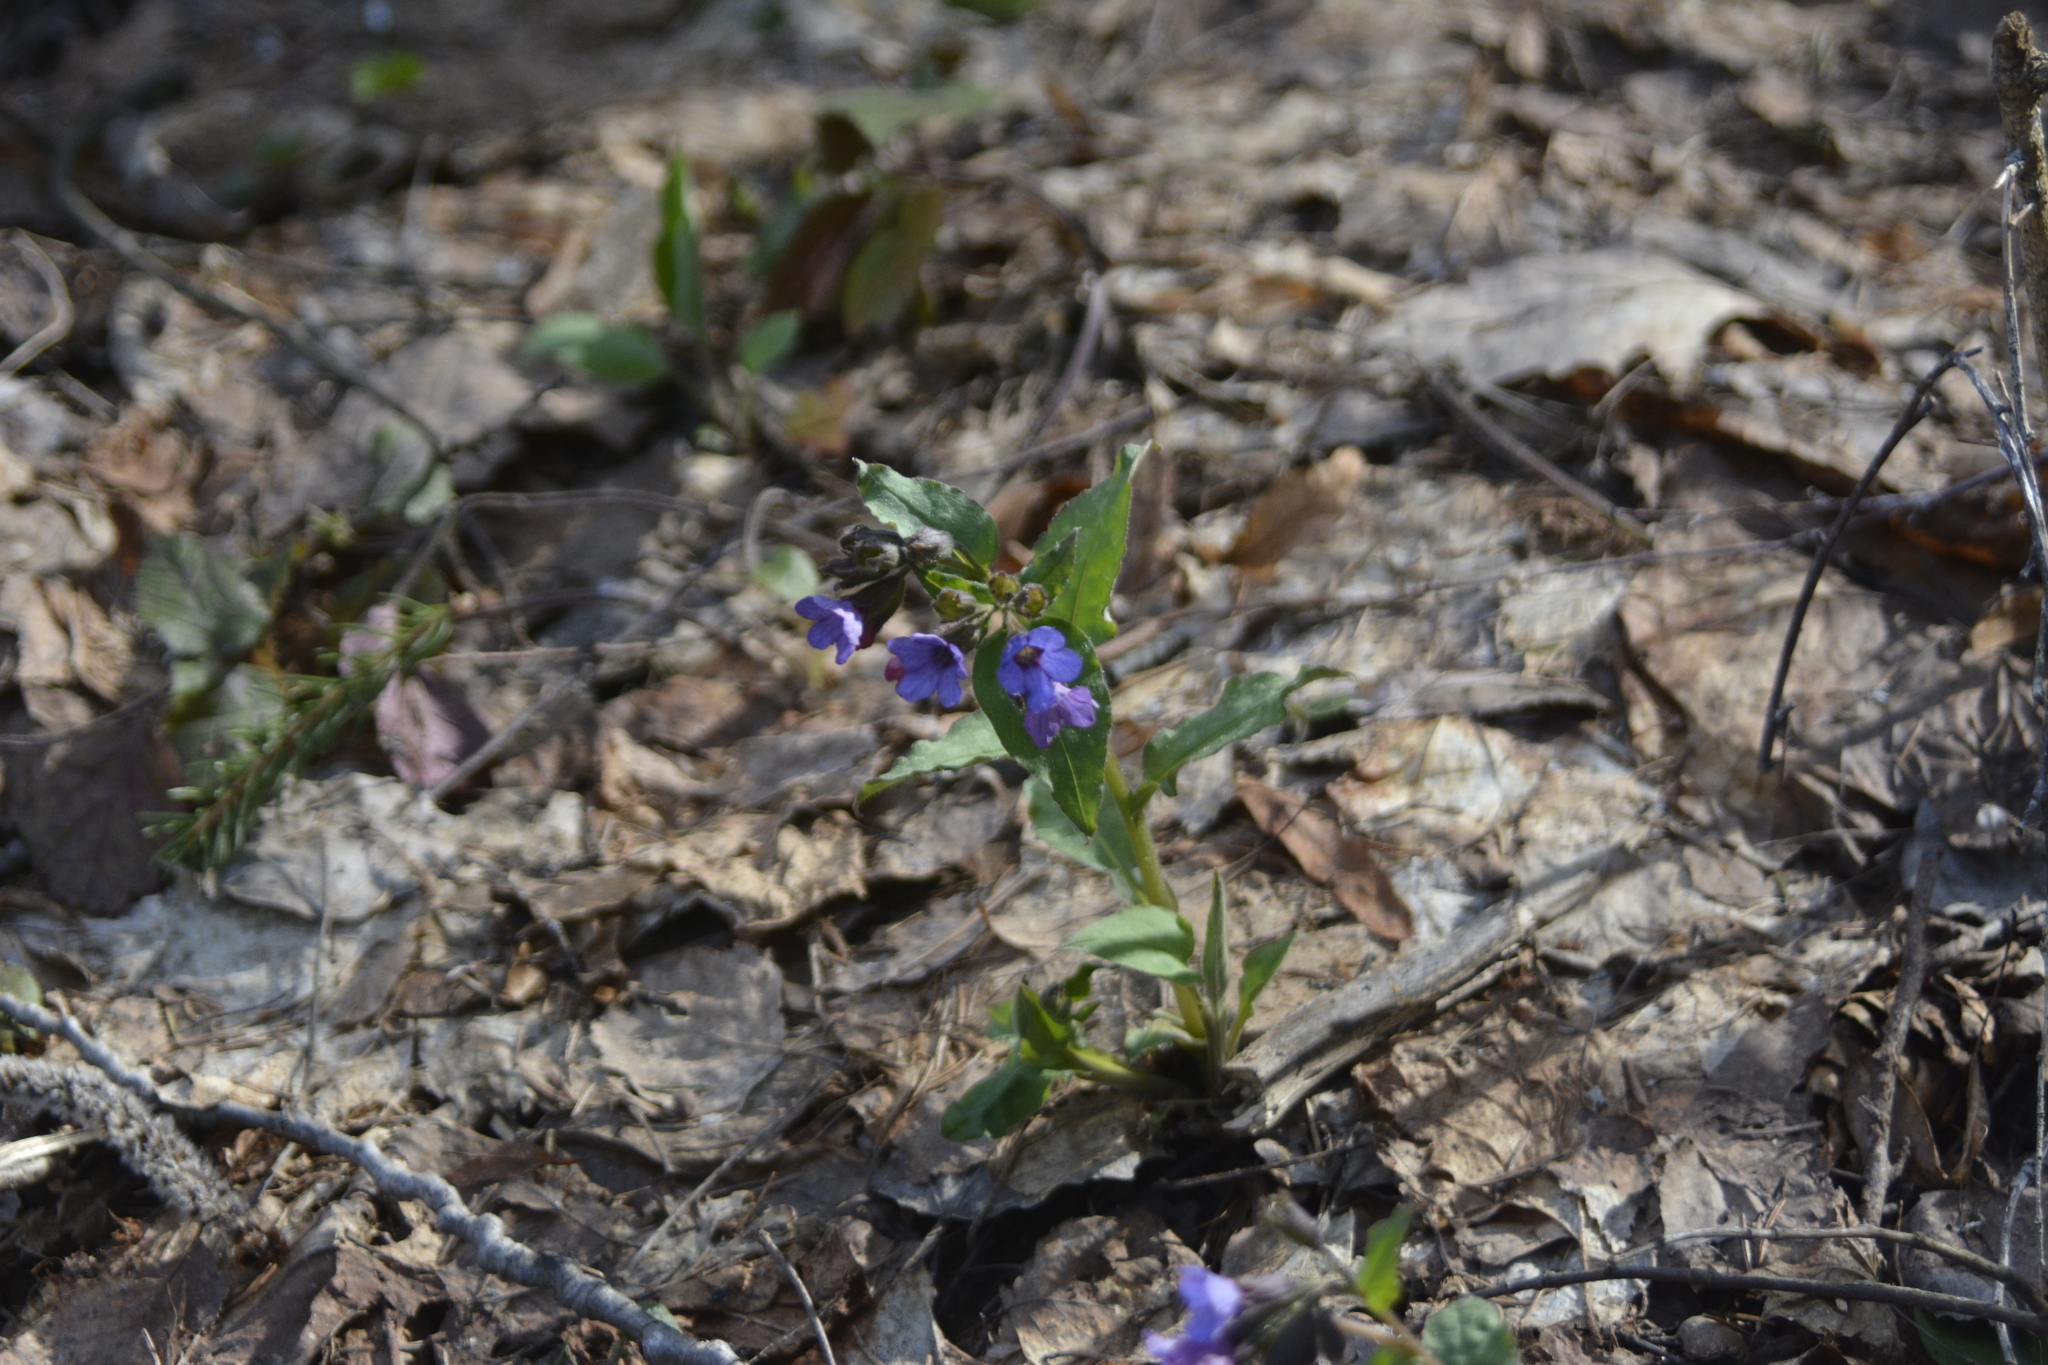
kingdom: Plantae
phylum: Tracheophyta
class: Magnoliopsida
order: Boraginales
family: Boraginaceae
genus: Pulmonaria
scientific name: Pulmonaria obscura
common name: Suffolk lungwort
